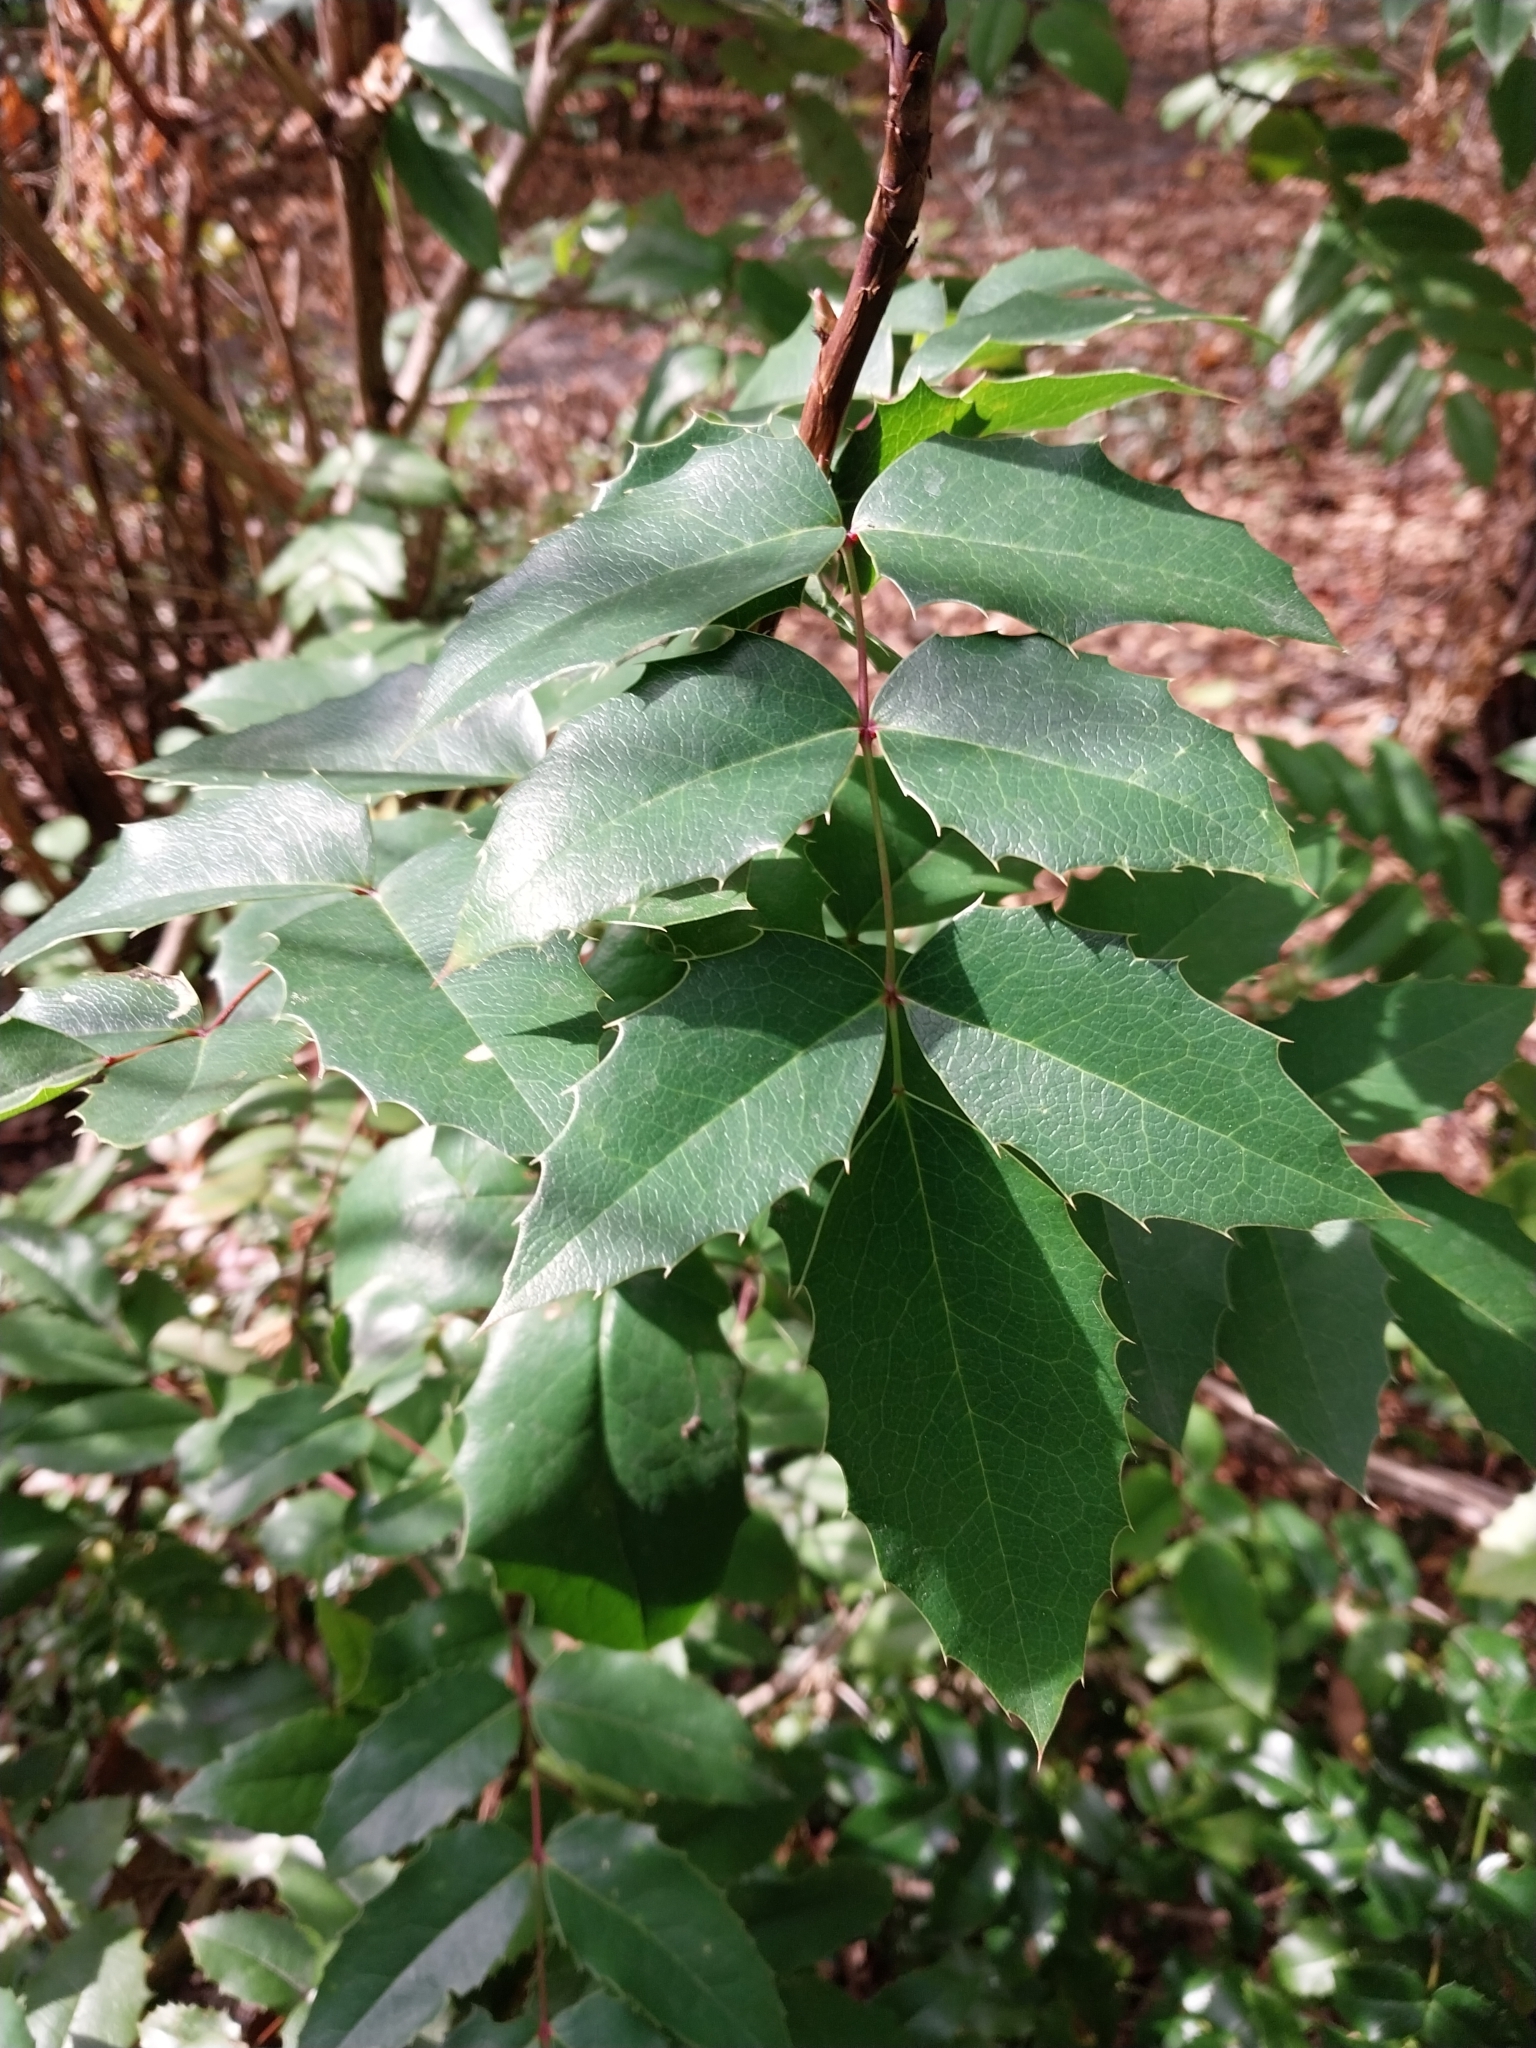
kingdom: Plantae
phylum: Tracheophyta
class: Magnoliopsida
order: Ranunculales
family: Berberidaceae
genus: Mahonia
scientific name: Mahonia aquifolium
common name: Oregon-grape
